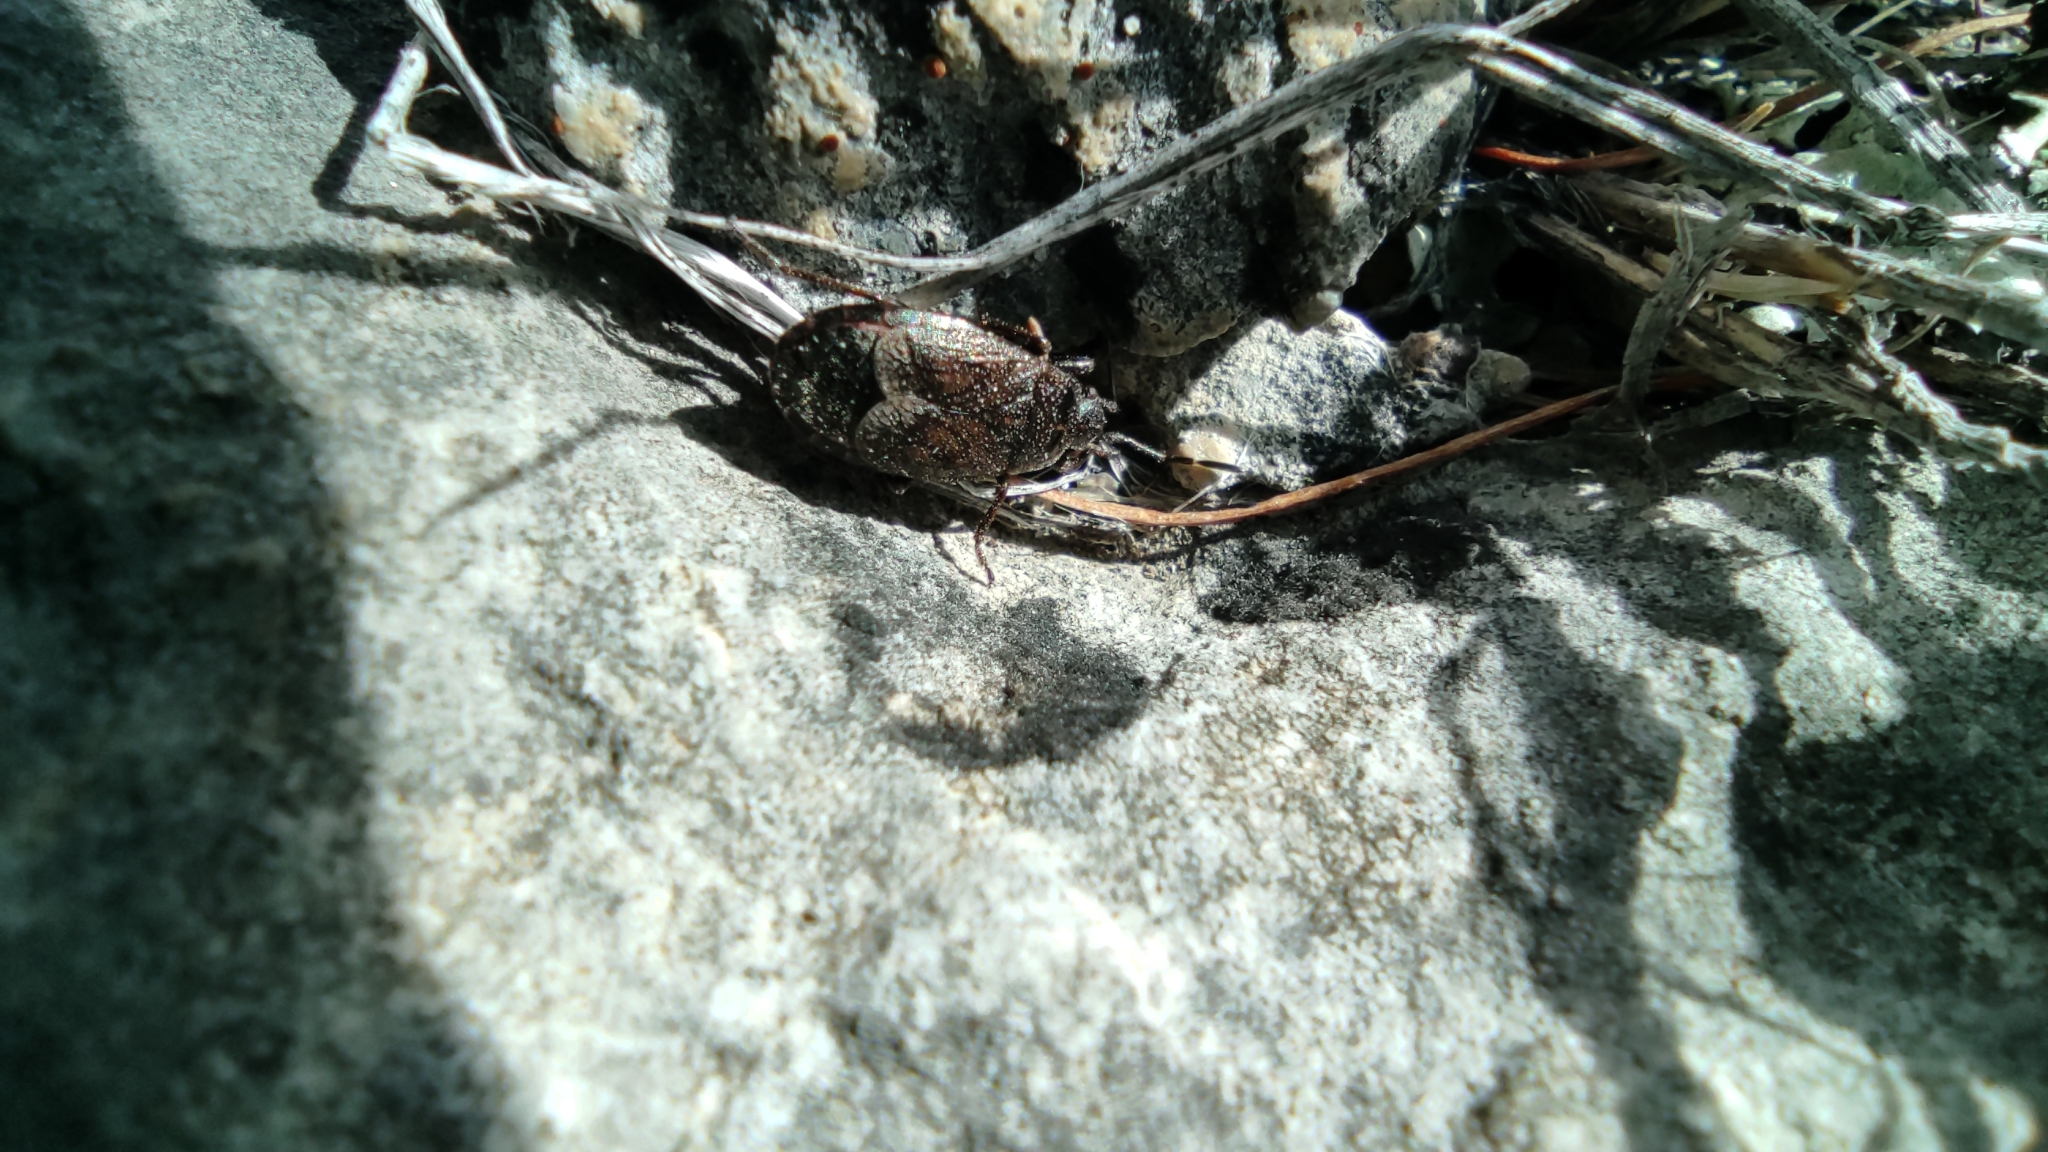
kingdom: Animalia
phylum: Arthropoda
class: Insecta
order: Hemiptera
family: Pyrrhocoridae
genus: Pyrrhocoris
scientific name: Pyrrhocoris marginatus
